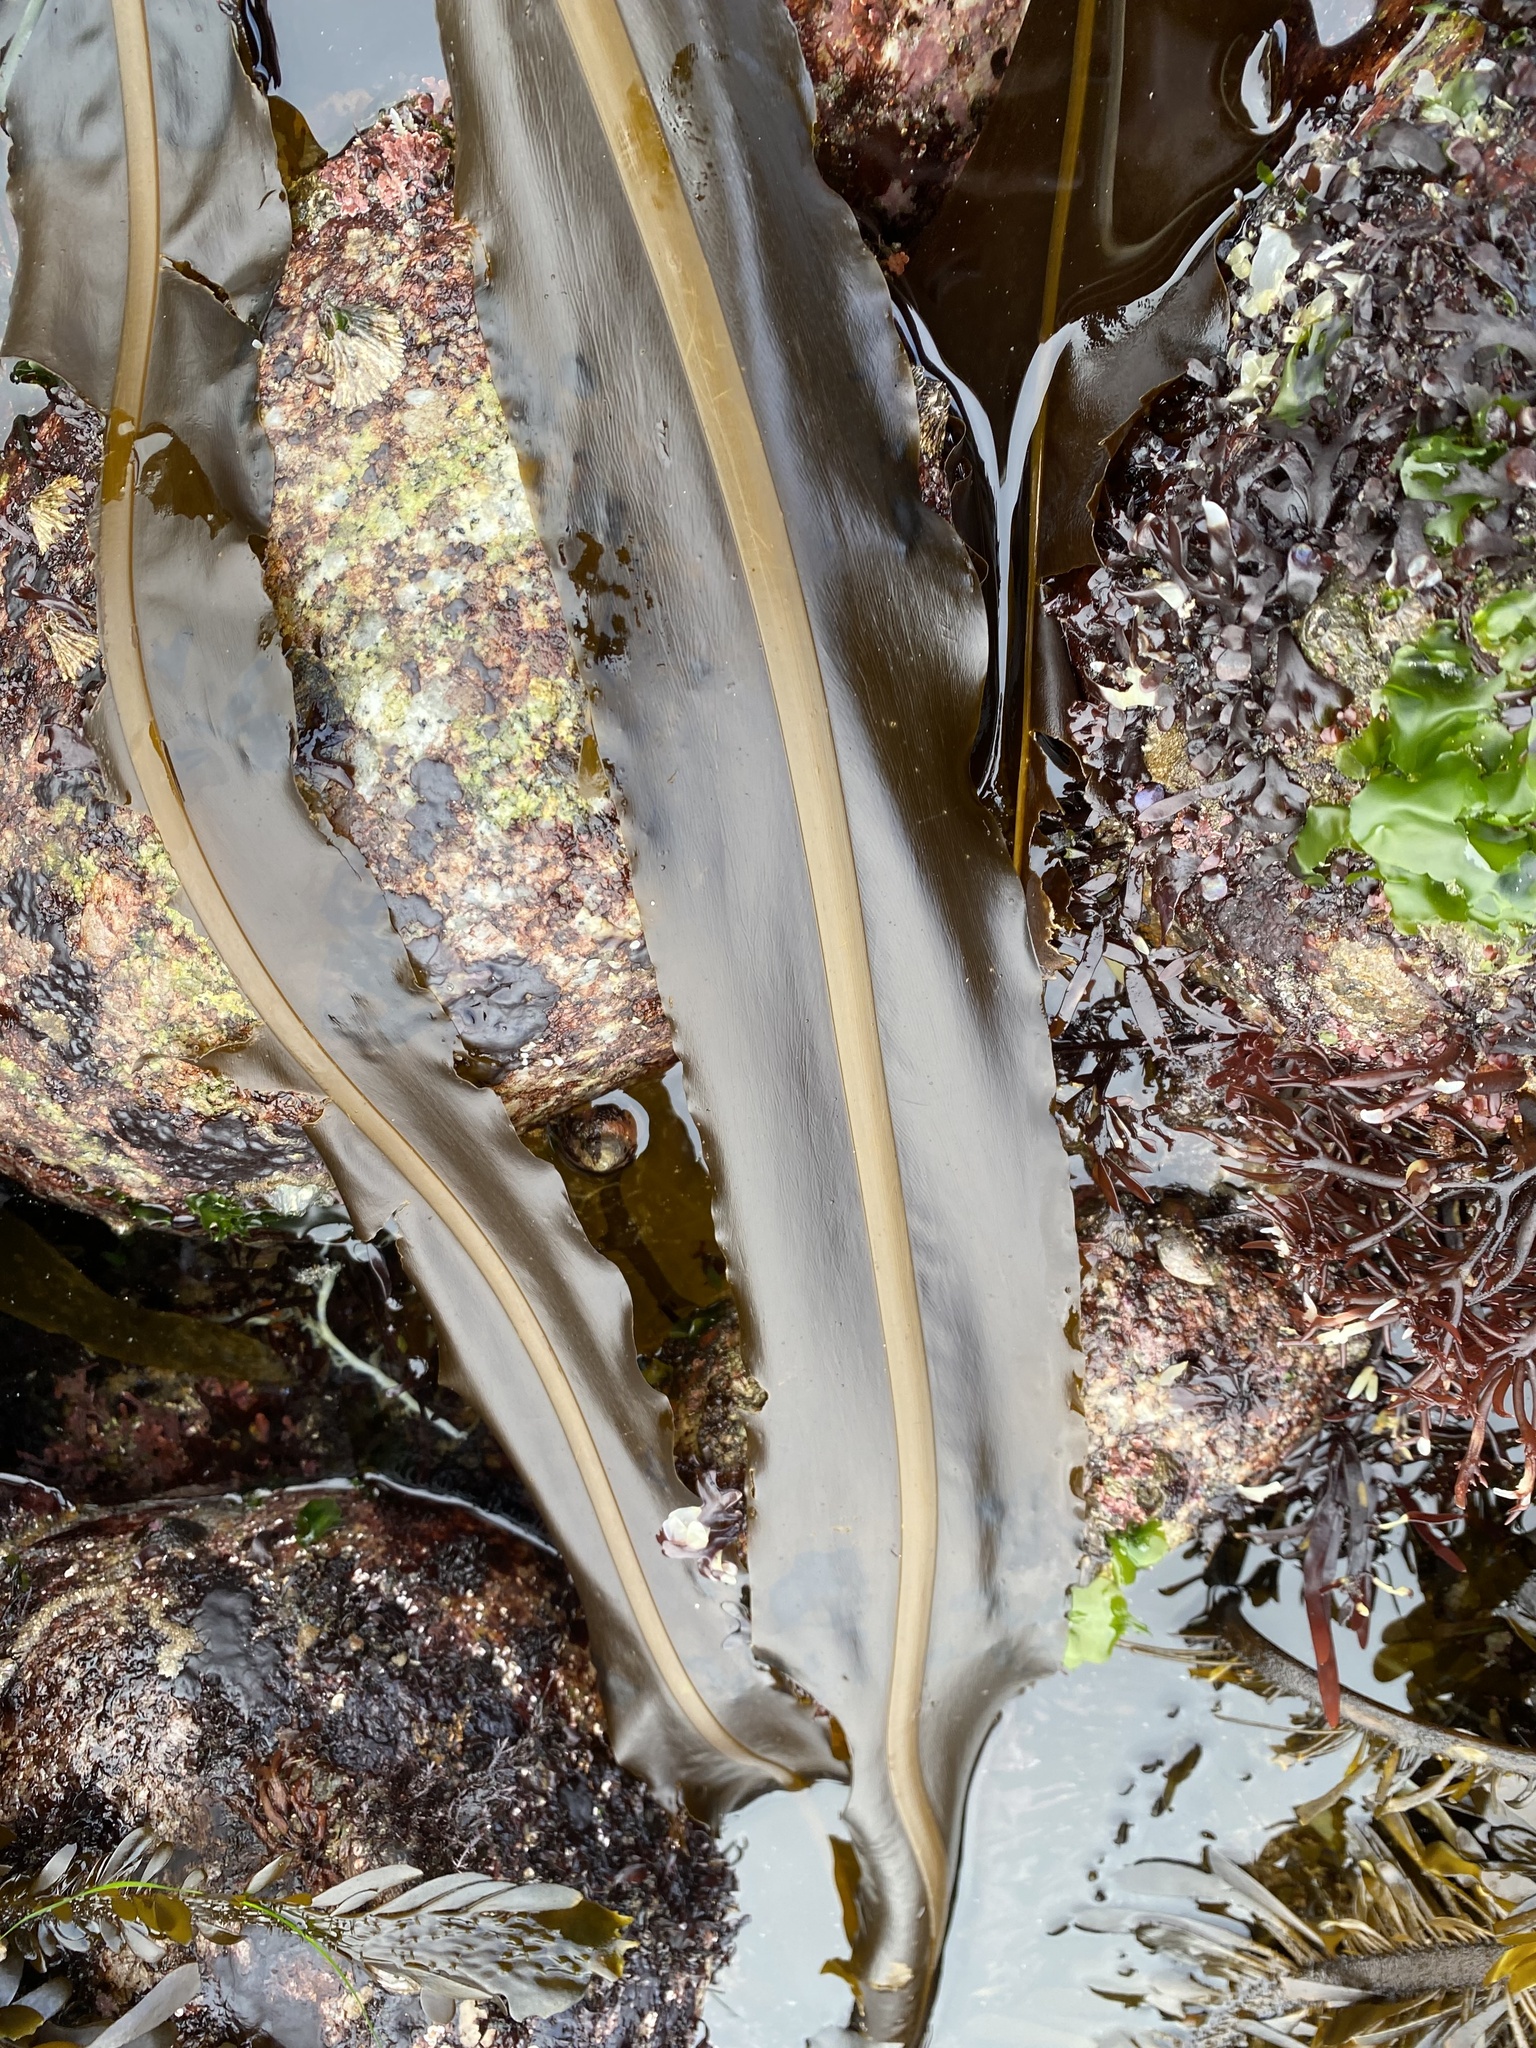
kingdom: Chromista
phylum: Ochrophyta
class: Phaeophyceae
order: Laminariales
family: Alariaceae
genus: Alaria
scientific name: Alaria marginata
